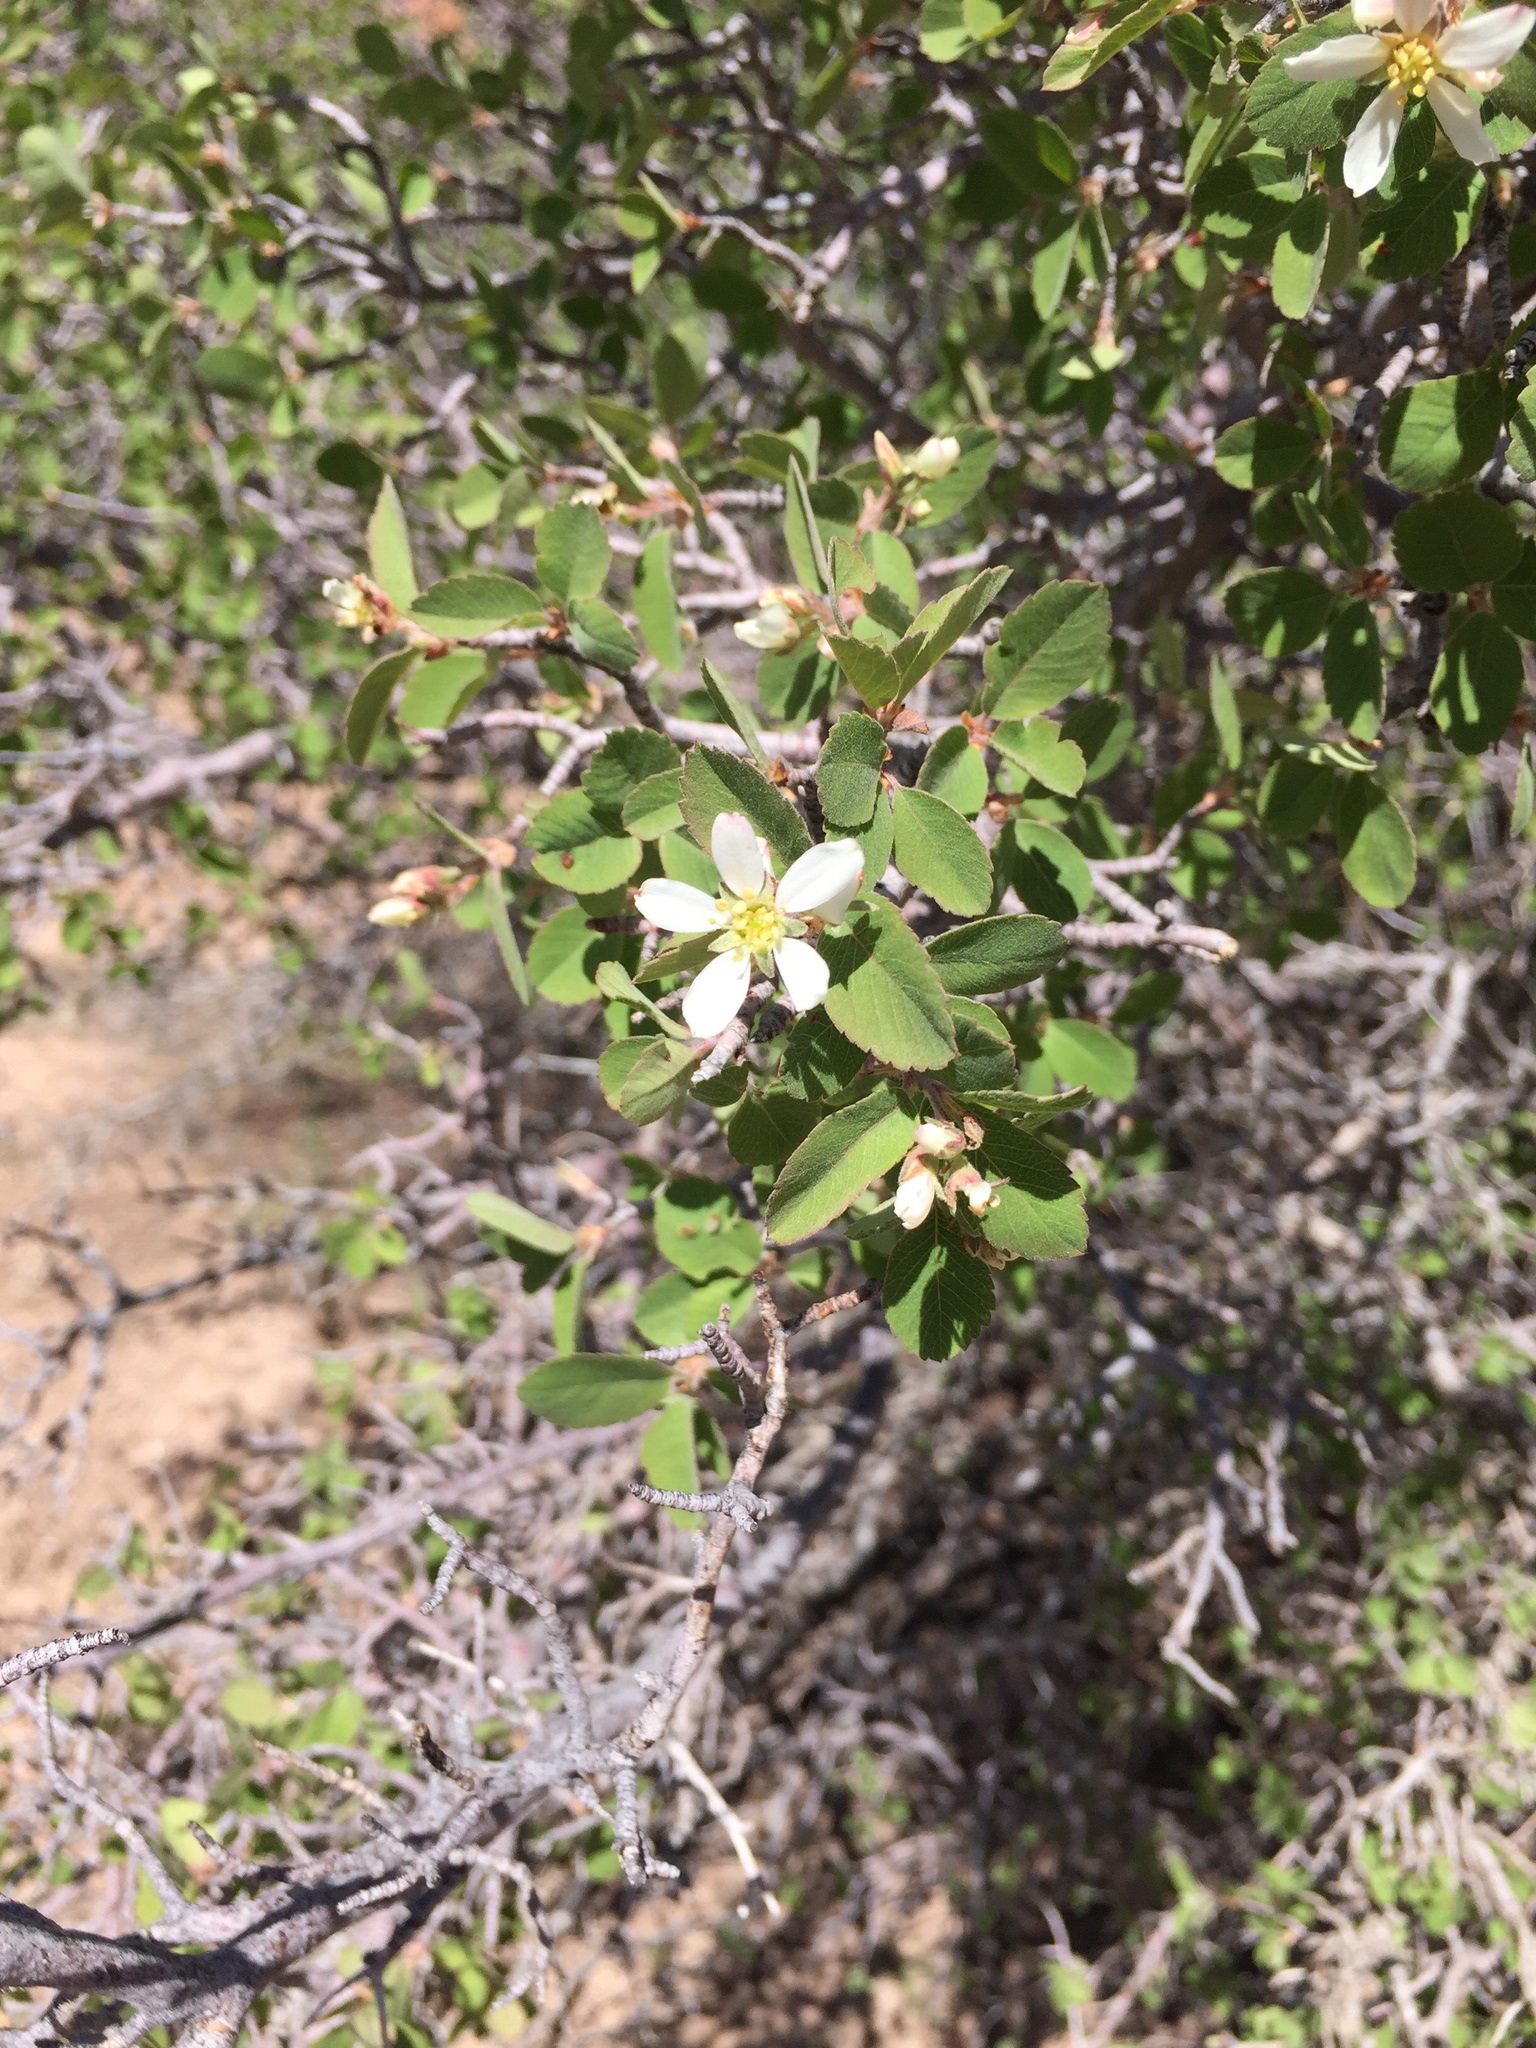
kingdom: Plantae
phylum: Tracheophyta
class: Magnoliopsida
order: Rosales
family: Rosaceae
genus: Amelanchier
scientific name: Amelanchier utahensis
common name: Utah serviceberry
